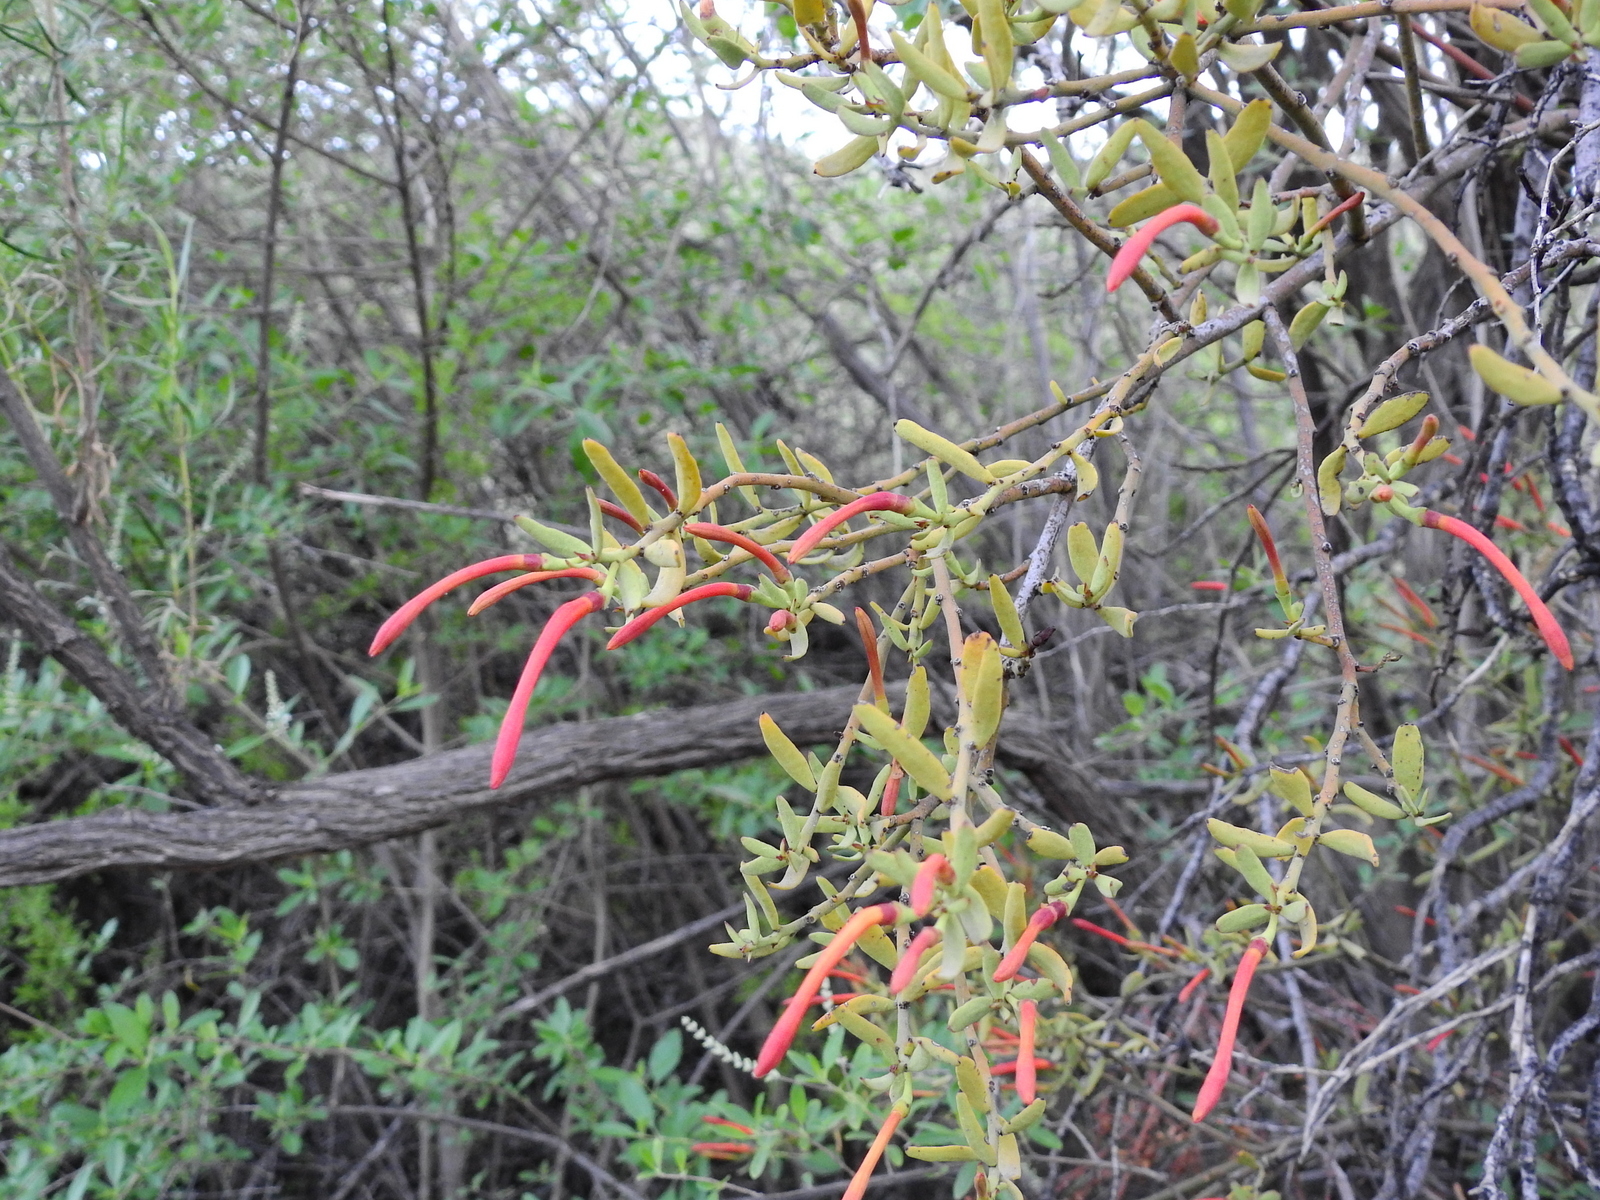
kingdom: Plantae
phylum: Tracheophyta
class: Magnoliopsida
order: Santalales
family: Loranthaceae
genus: Ligaria
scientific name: Ligaria cuneifolia
